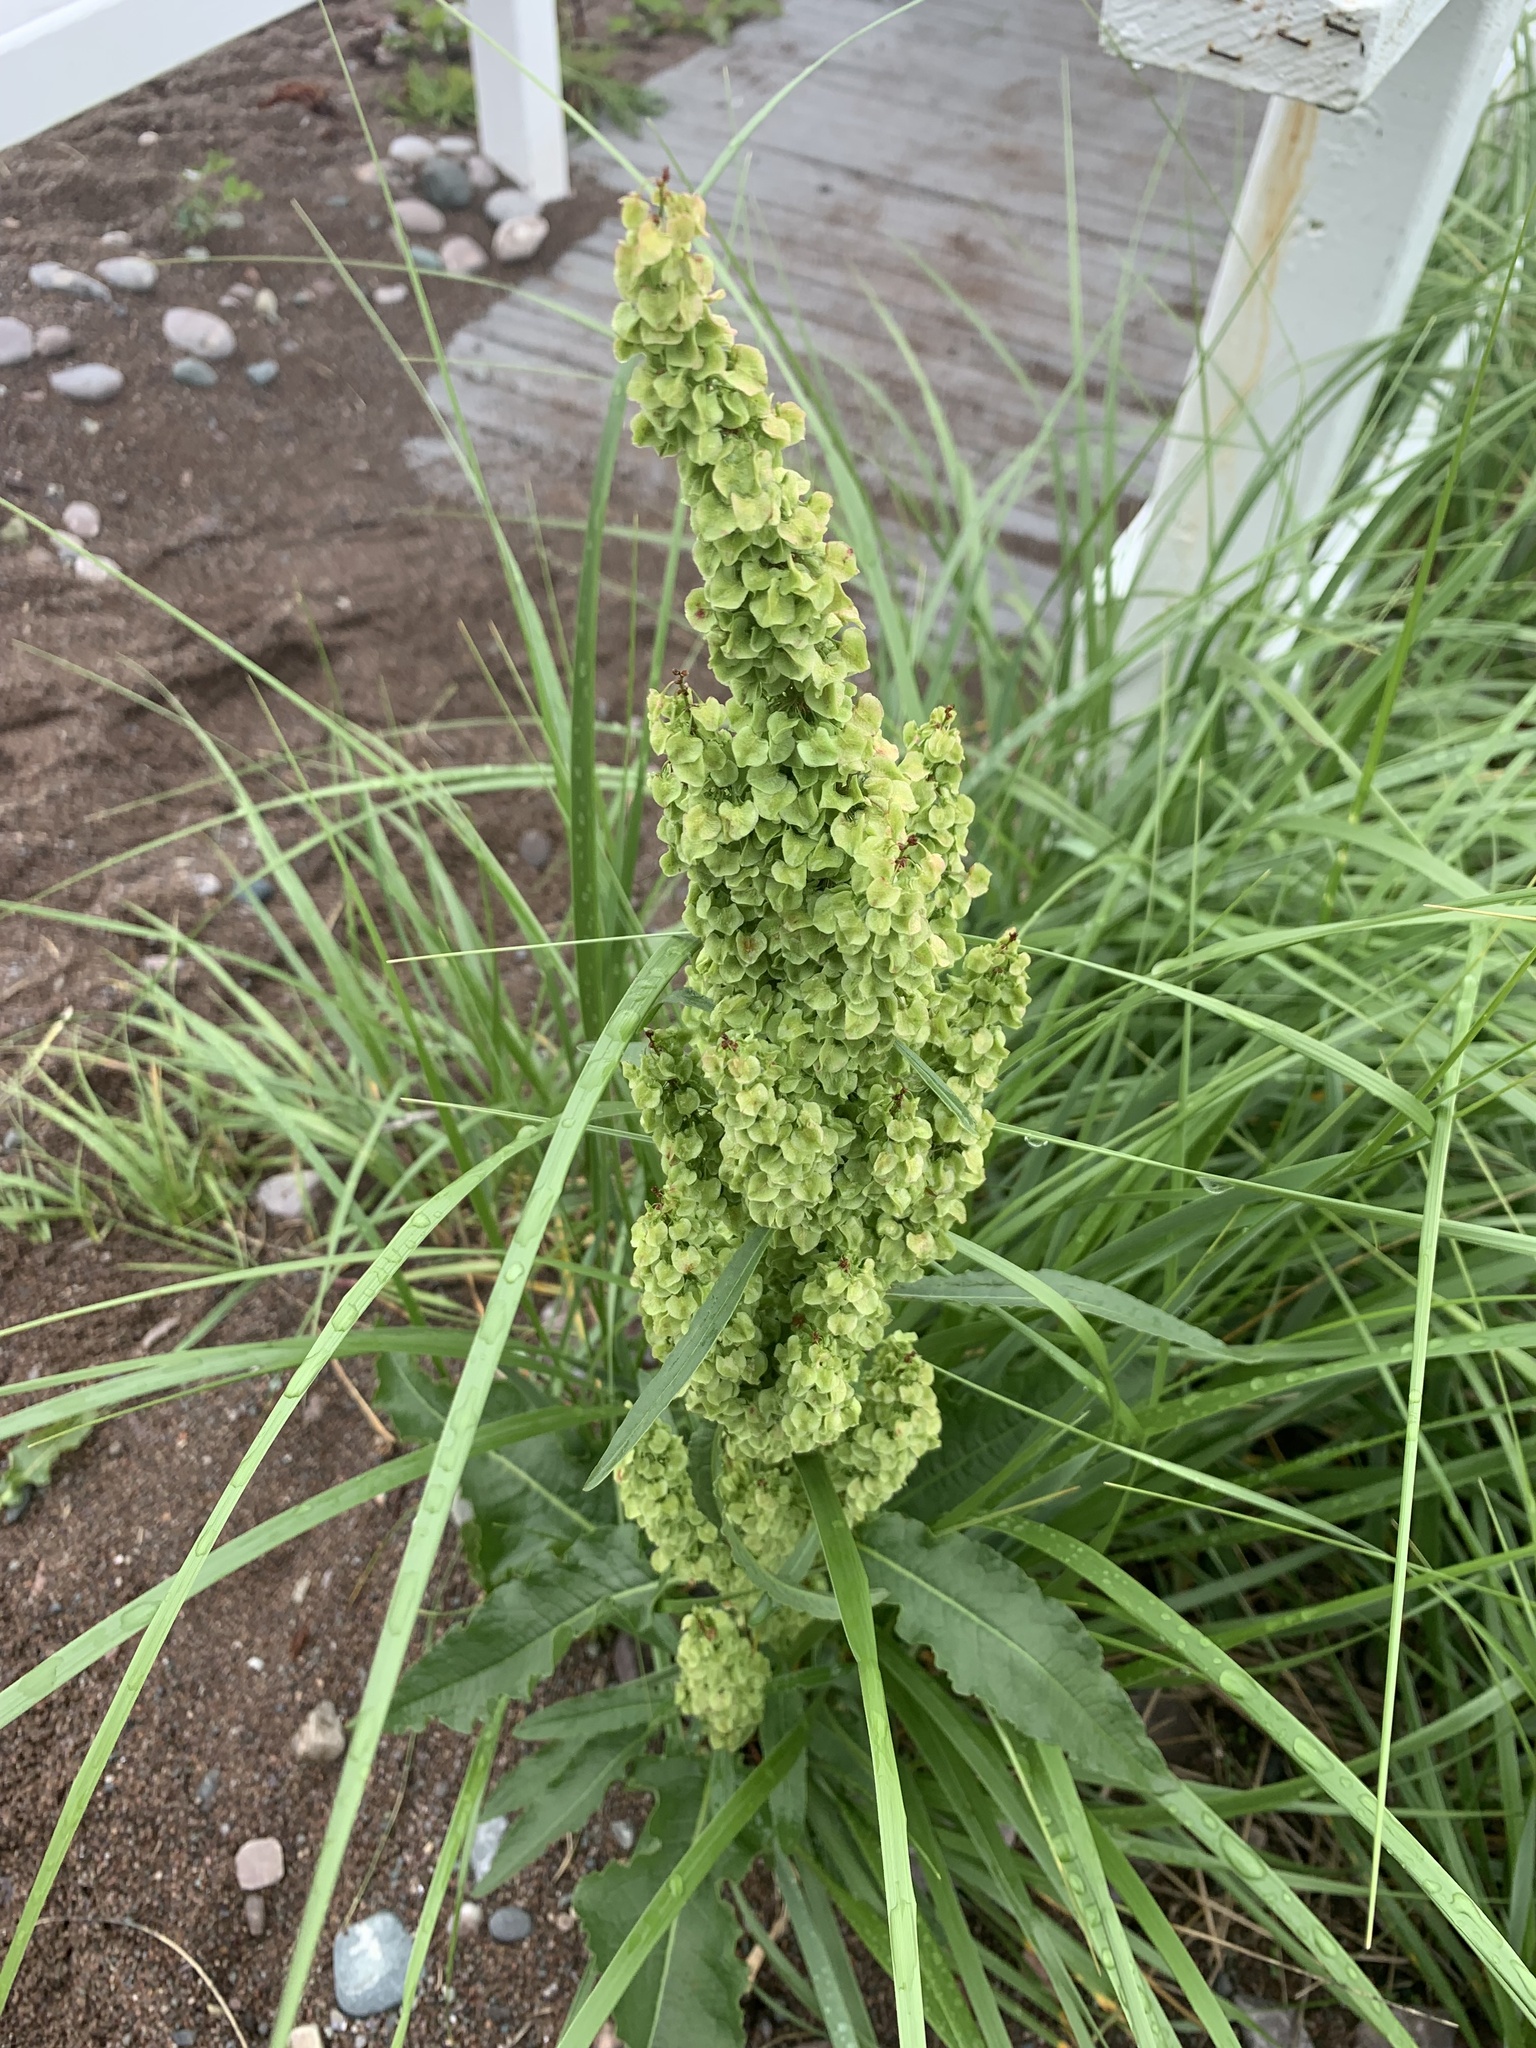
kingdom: Plantae
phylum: Tracheophyta
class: Magnoliopsida
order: Caryophyllales
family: Polygonaceae
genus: Rumex
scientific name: Rumex longifolius
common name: Dooryard dock
